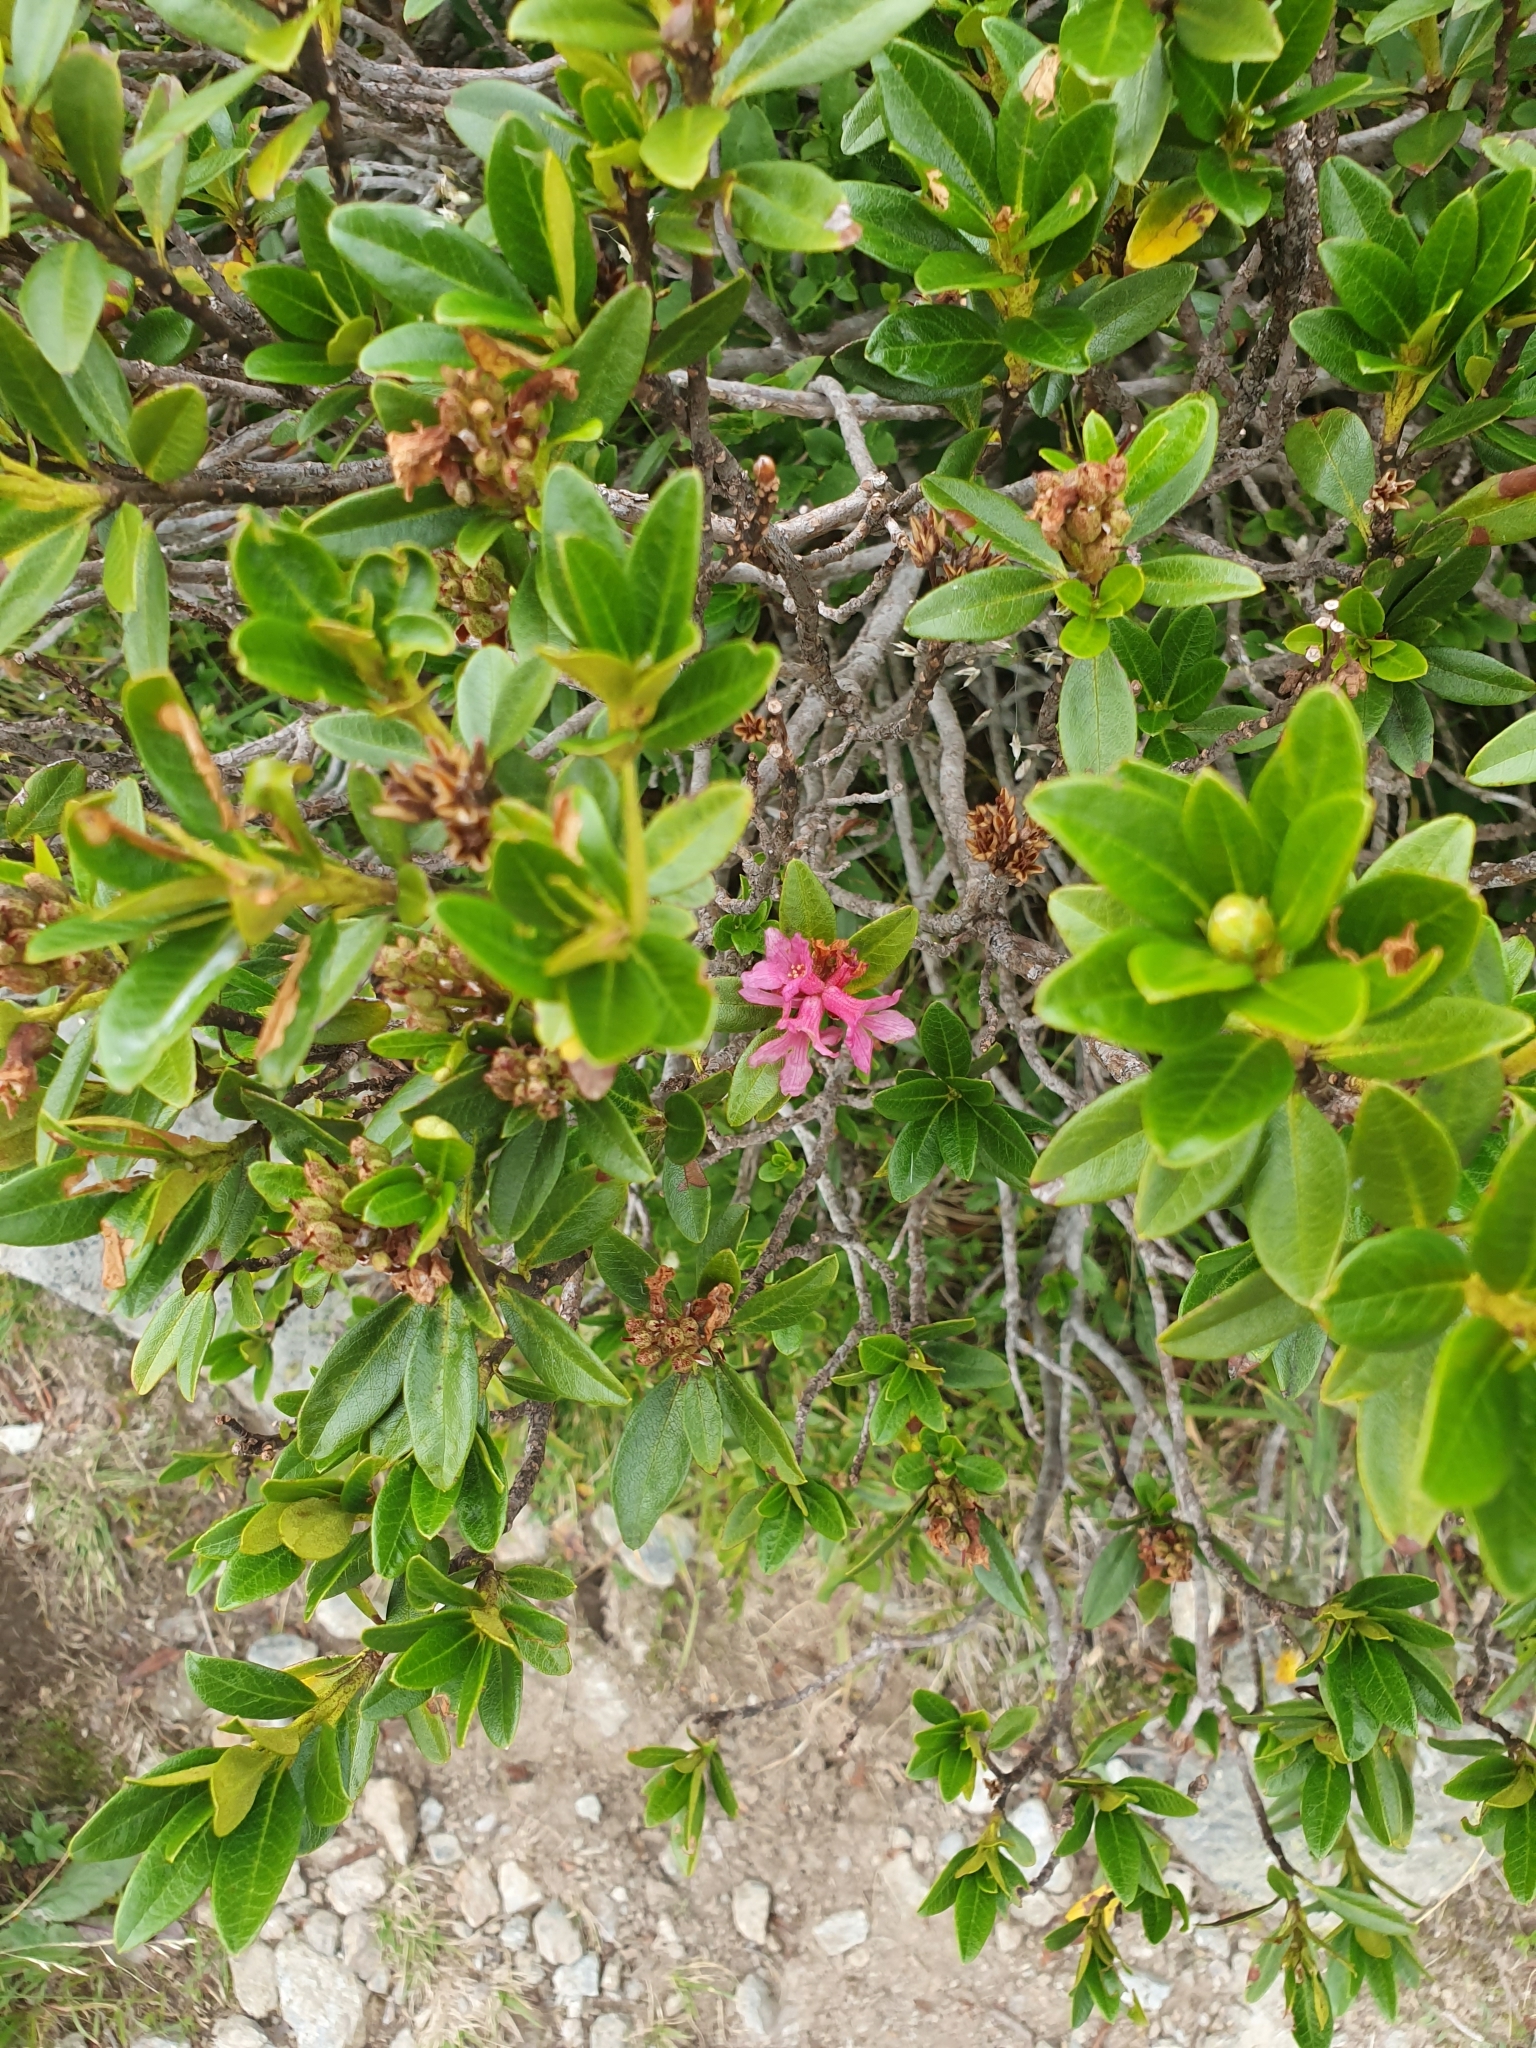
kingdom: Plantae
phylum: Tracheophyta
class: Magnoliopsida
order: Ericales
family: Ericaceae
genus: Rhododendron
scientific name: Rhododendron ferrugineum
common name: Alpenrose
